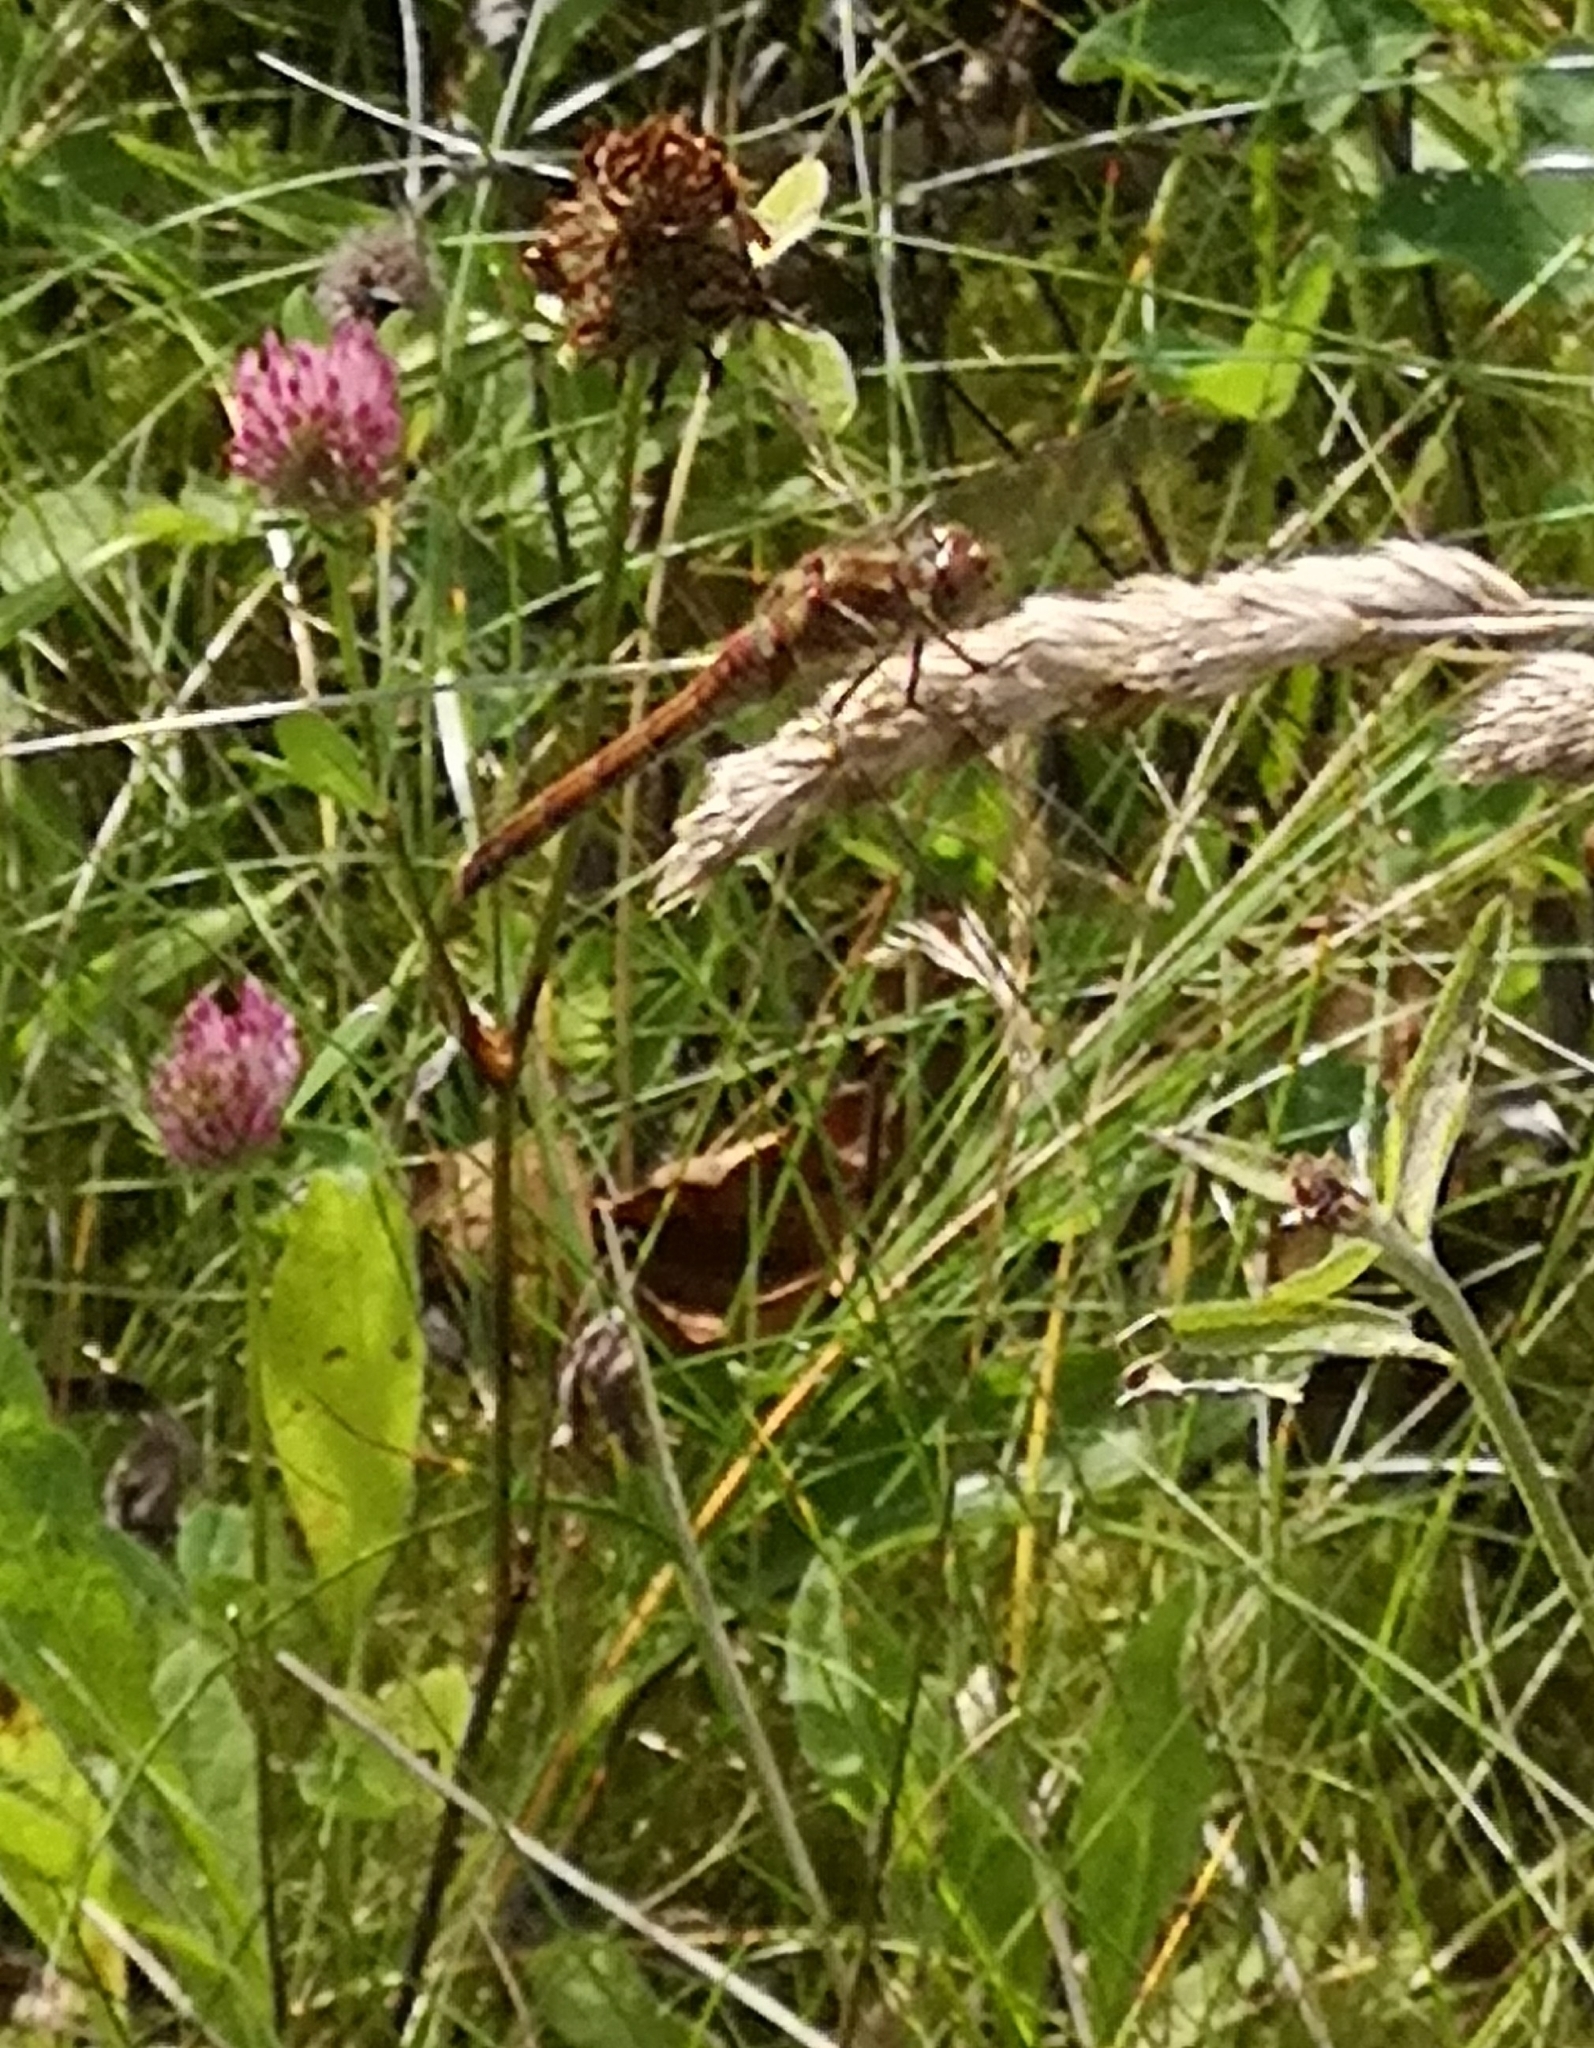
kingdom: Animalia
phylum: Arthropoda
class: Insecta
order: Odonata
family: Libellulidae
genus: Sympetrum
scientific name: Sympetrum striolatum
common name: Common darter
